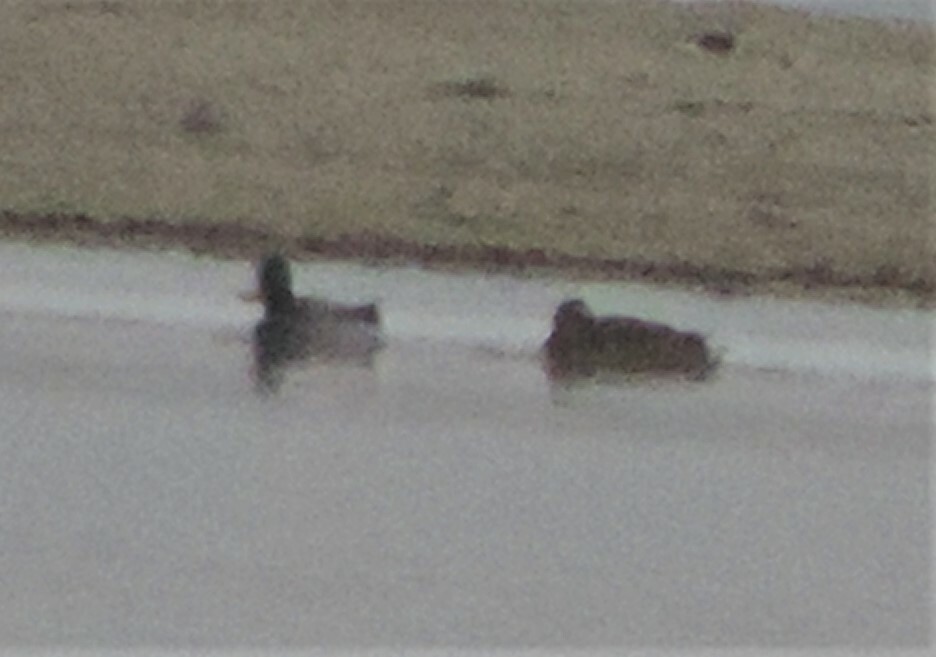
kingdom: Animalia
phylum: Chordata
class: Aves
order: Anseriformes
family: Anatidae
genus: Anas
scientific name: Anas platyrhynchos
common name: Mallard
